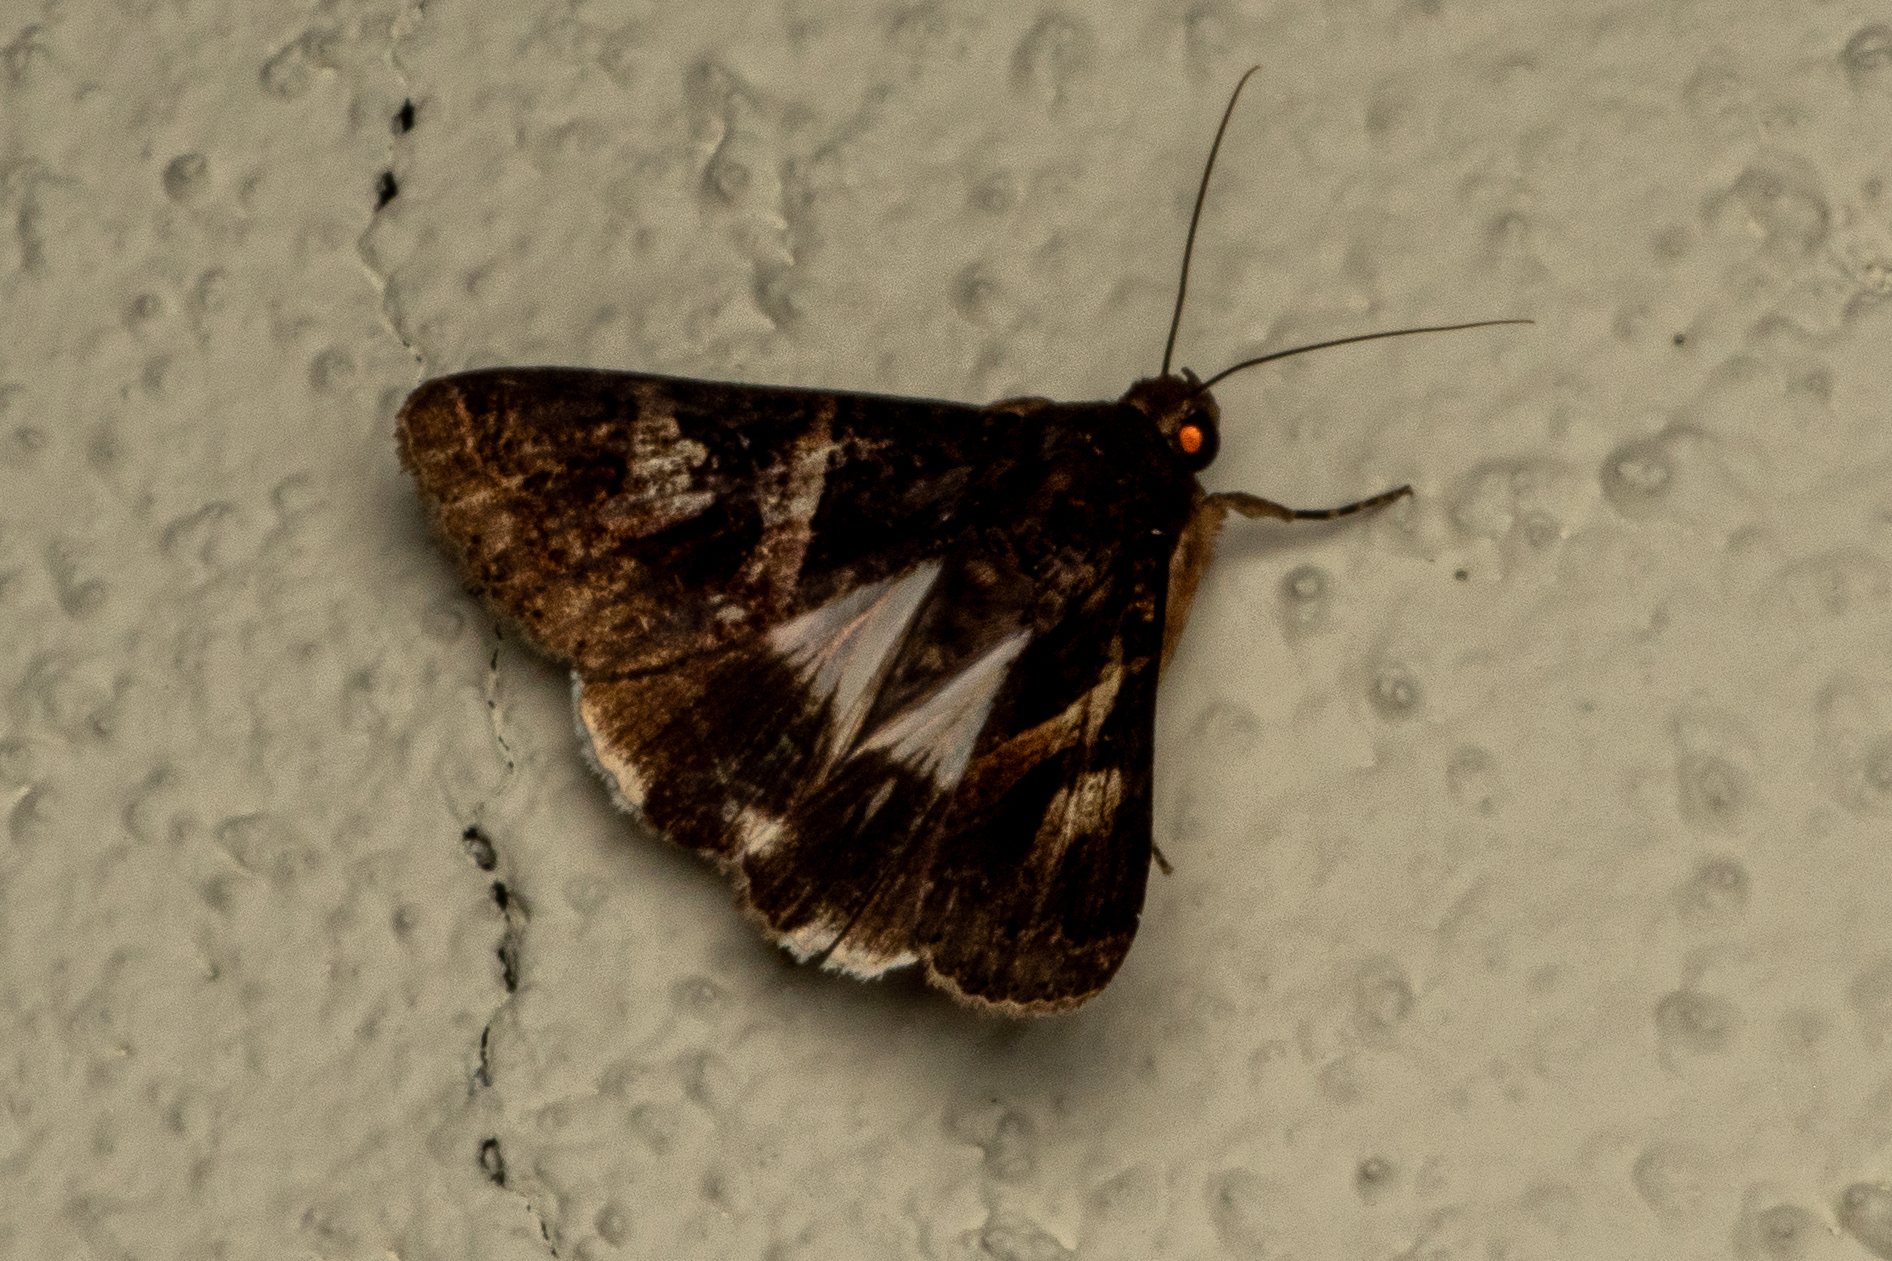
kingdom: Animalia
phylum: Arthropoda
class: Insecta
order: Lepidoptera
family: Erebidae
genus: Melipotis
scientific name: Melipotis contorta
